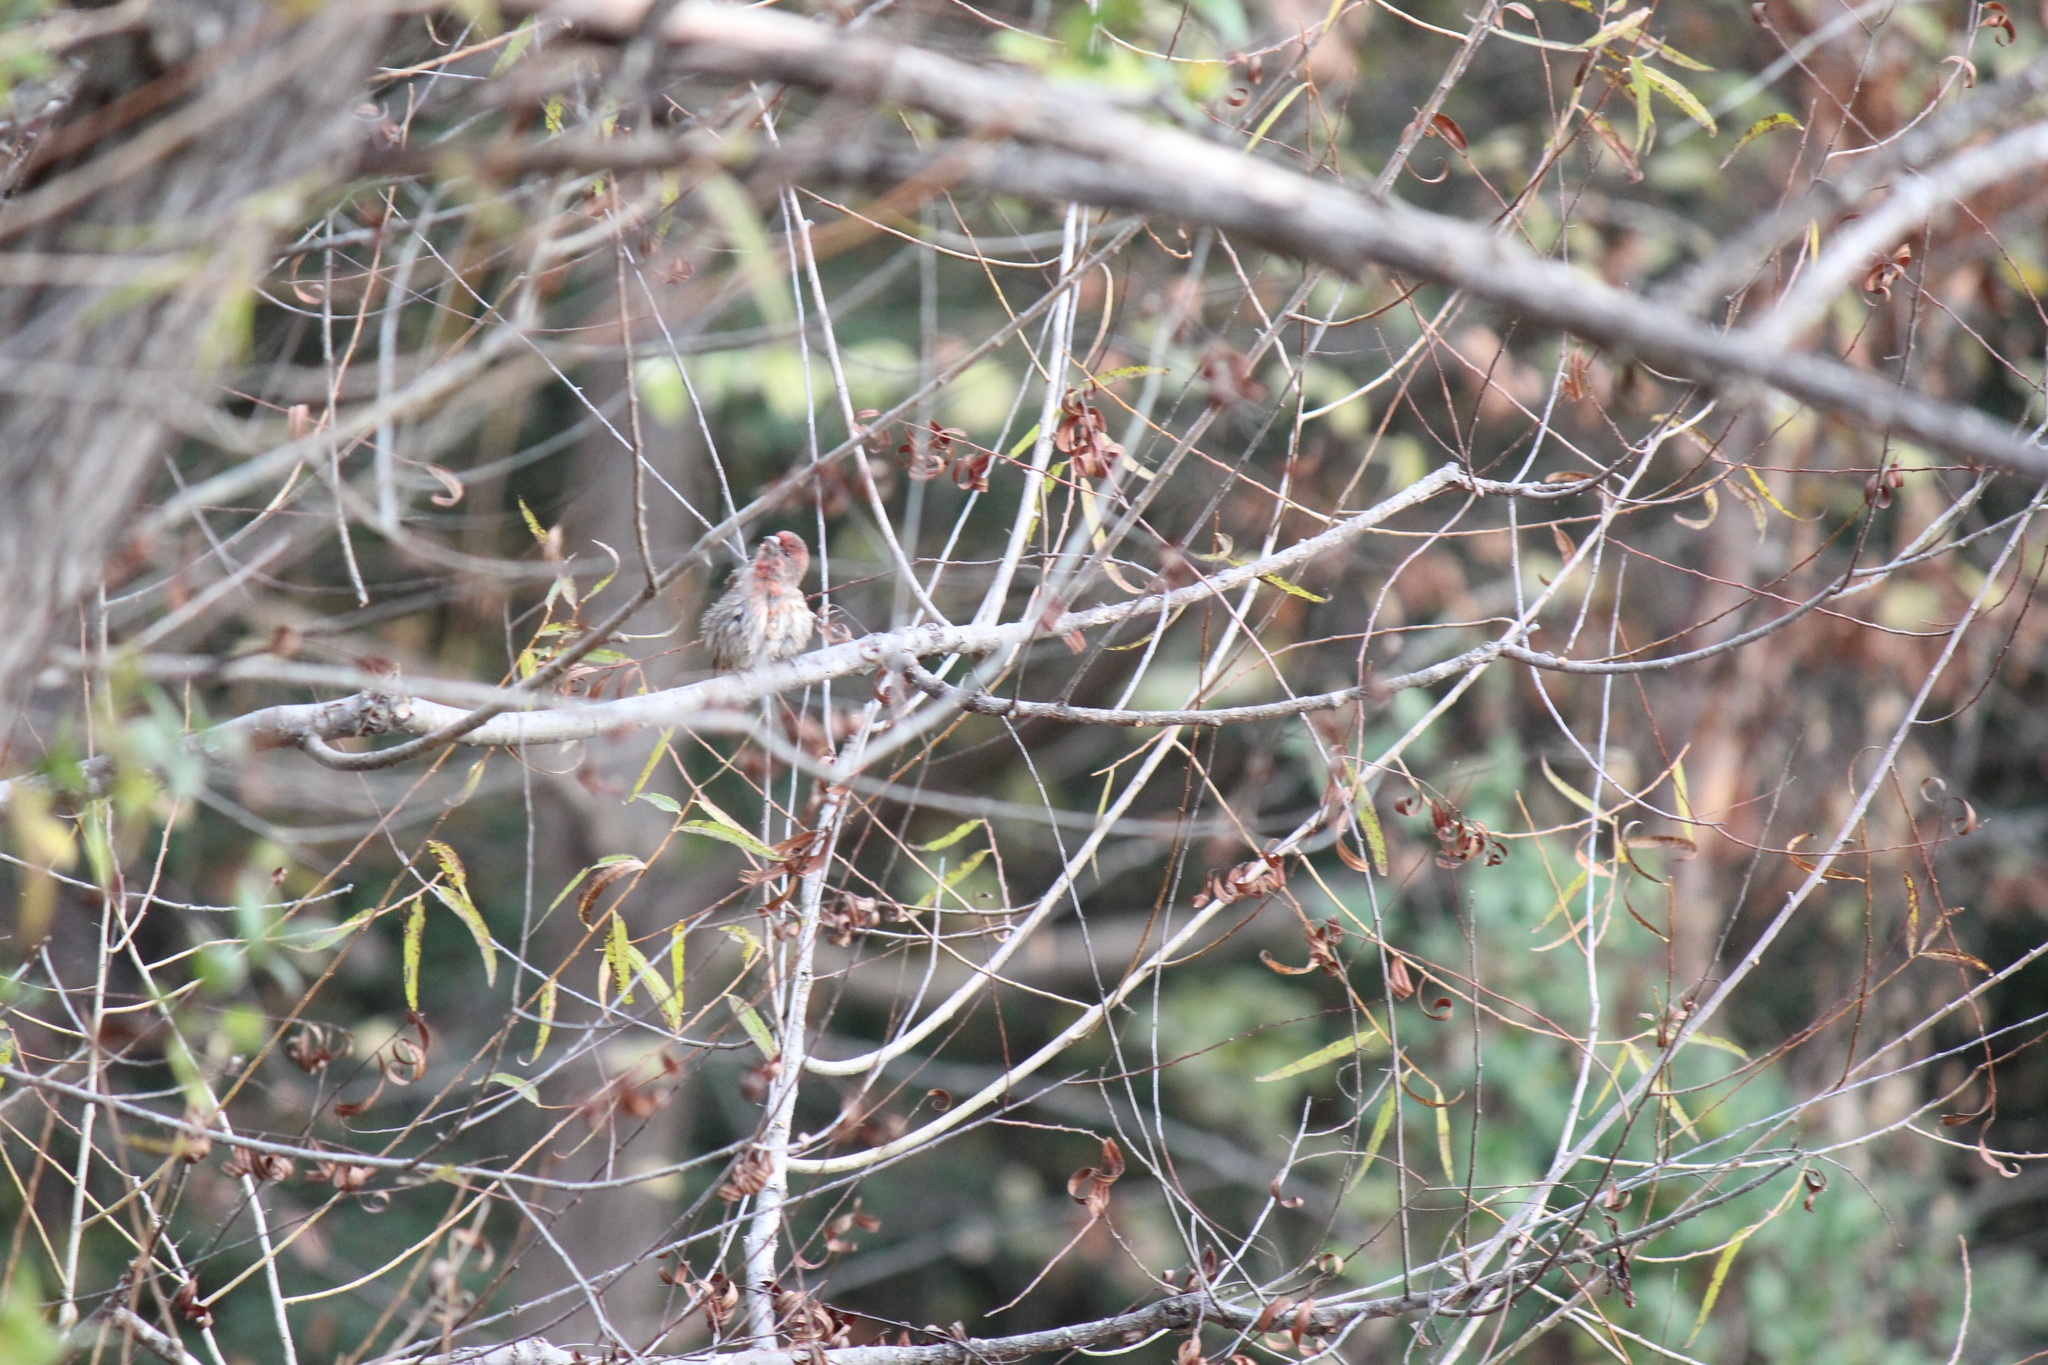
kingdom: Animalia
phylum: Chordata
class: Aves
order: Passeriformes
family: Fringillidae
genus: Haemorhous
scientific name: Haemorhous mexicanus
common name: House finch
